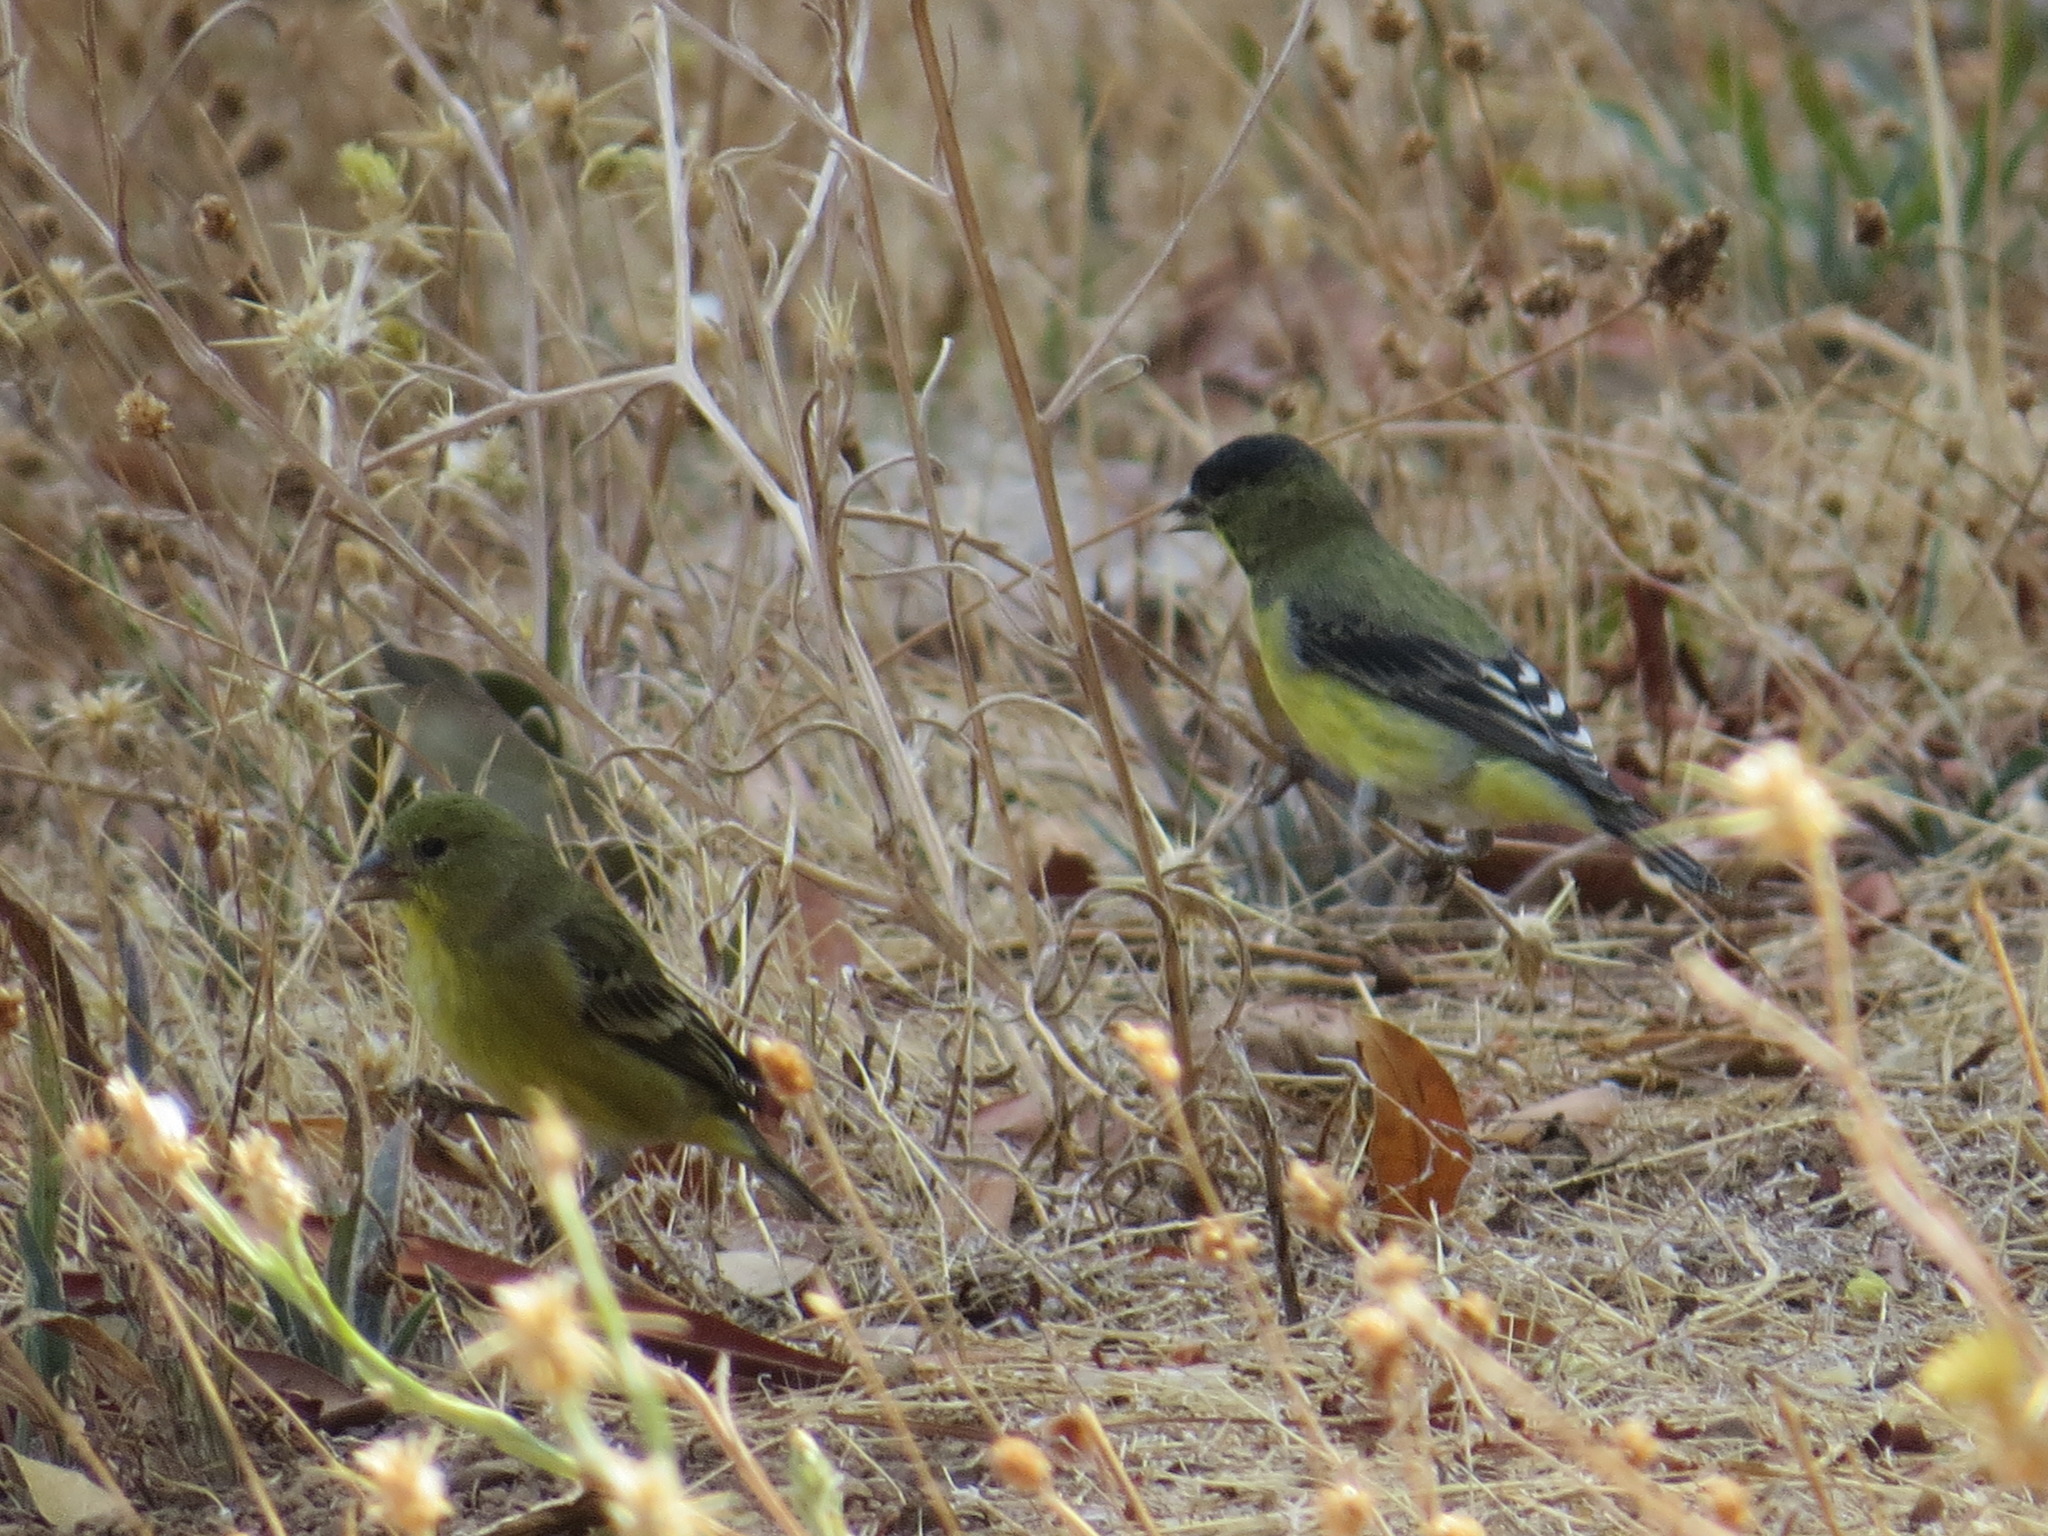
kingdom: Animalia
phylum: Chordata
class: Aves
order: Passeriformes
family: Fringillidae
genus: Spinus
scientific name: Spinus psaltria
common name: Lesser goldfinch
